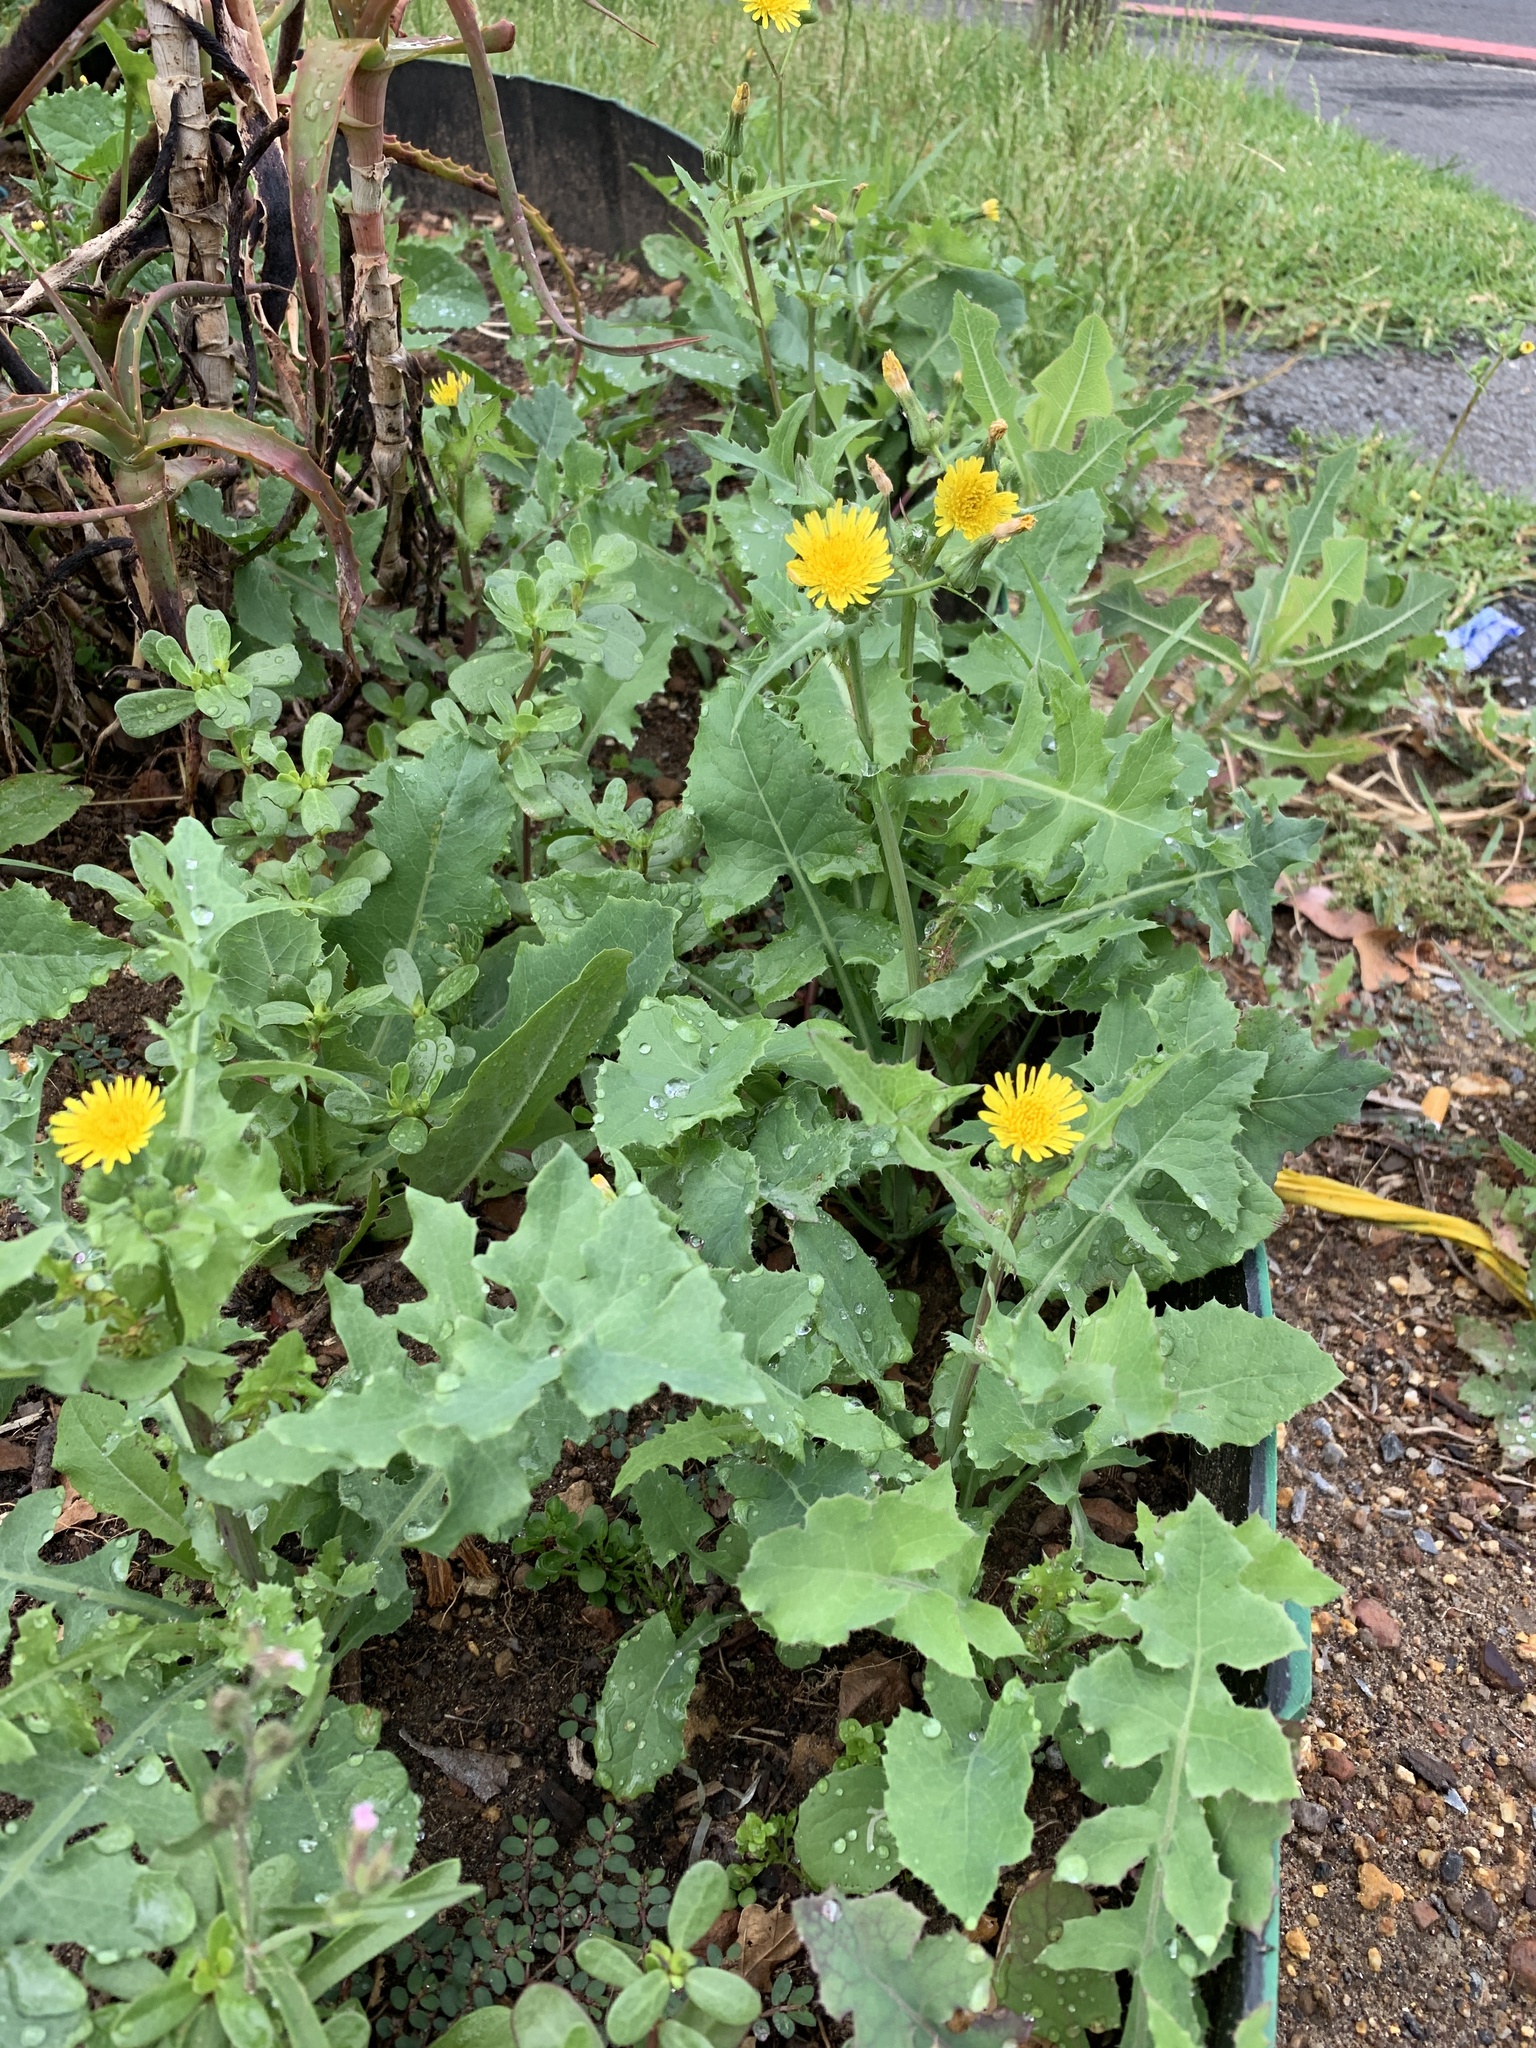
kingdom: Plantae
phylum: Tracheophyta
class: Magnoliopsida
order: Asterales
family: Asteraceae
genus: Sonchus
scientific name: Sonchus oleraceus
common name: Common sowthistle
